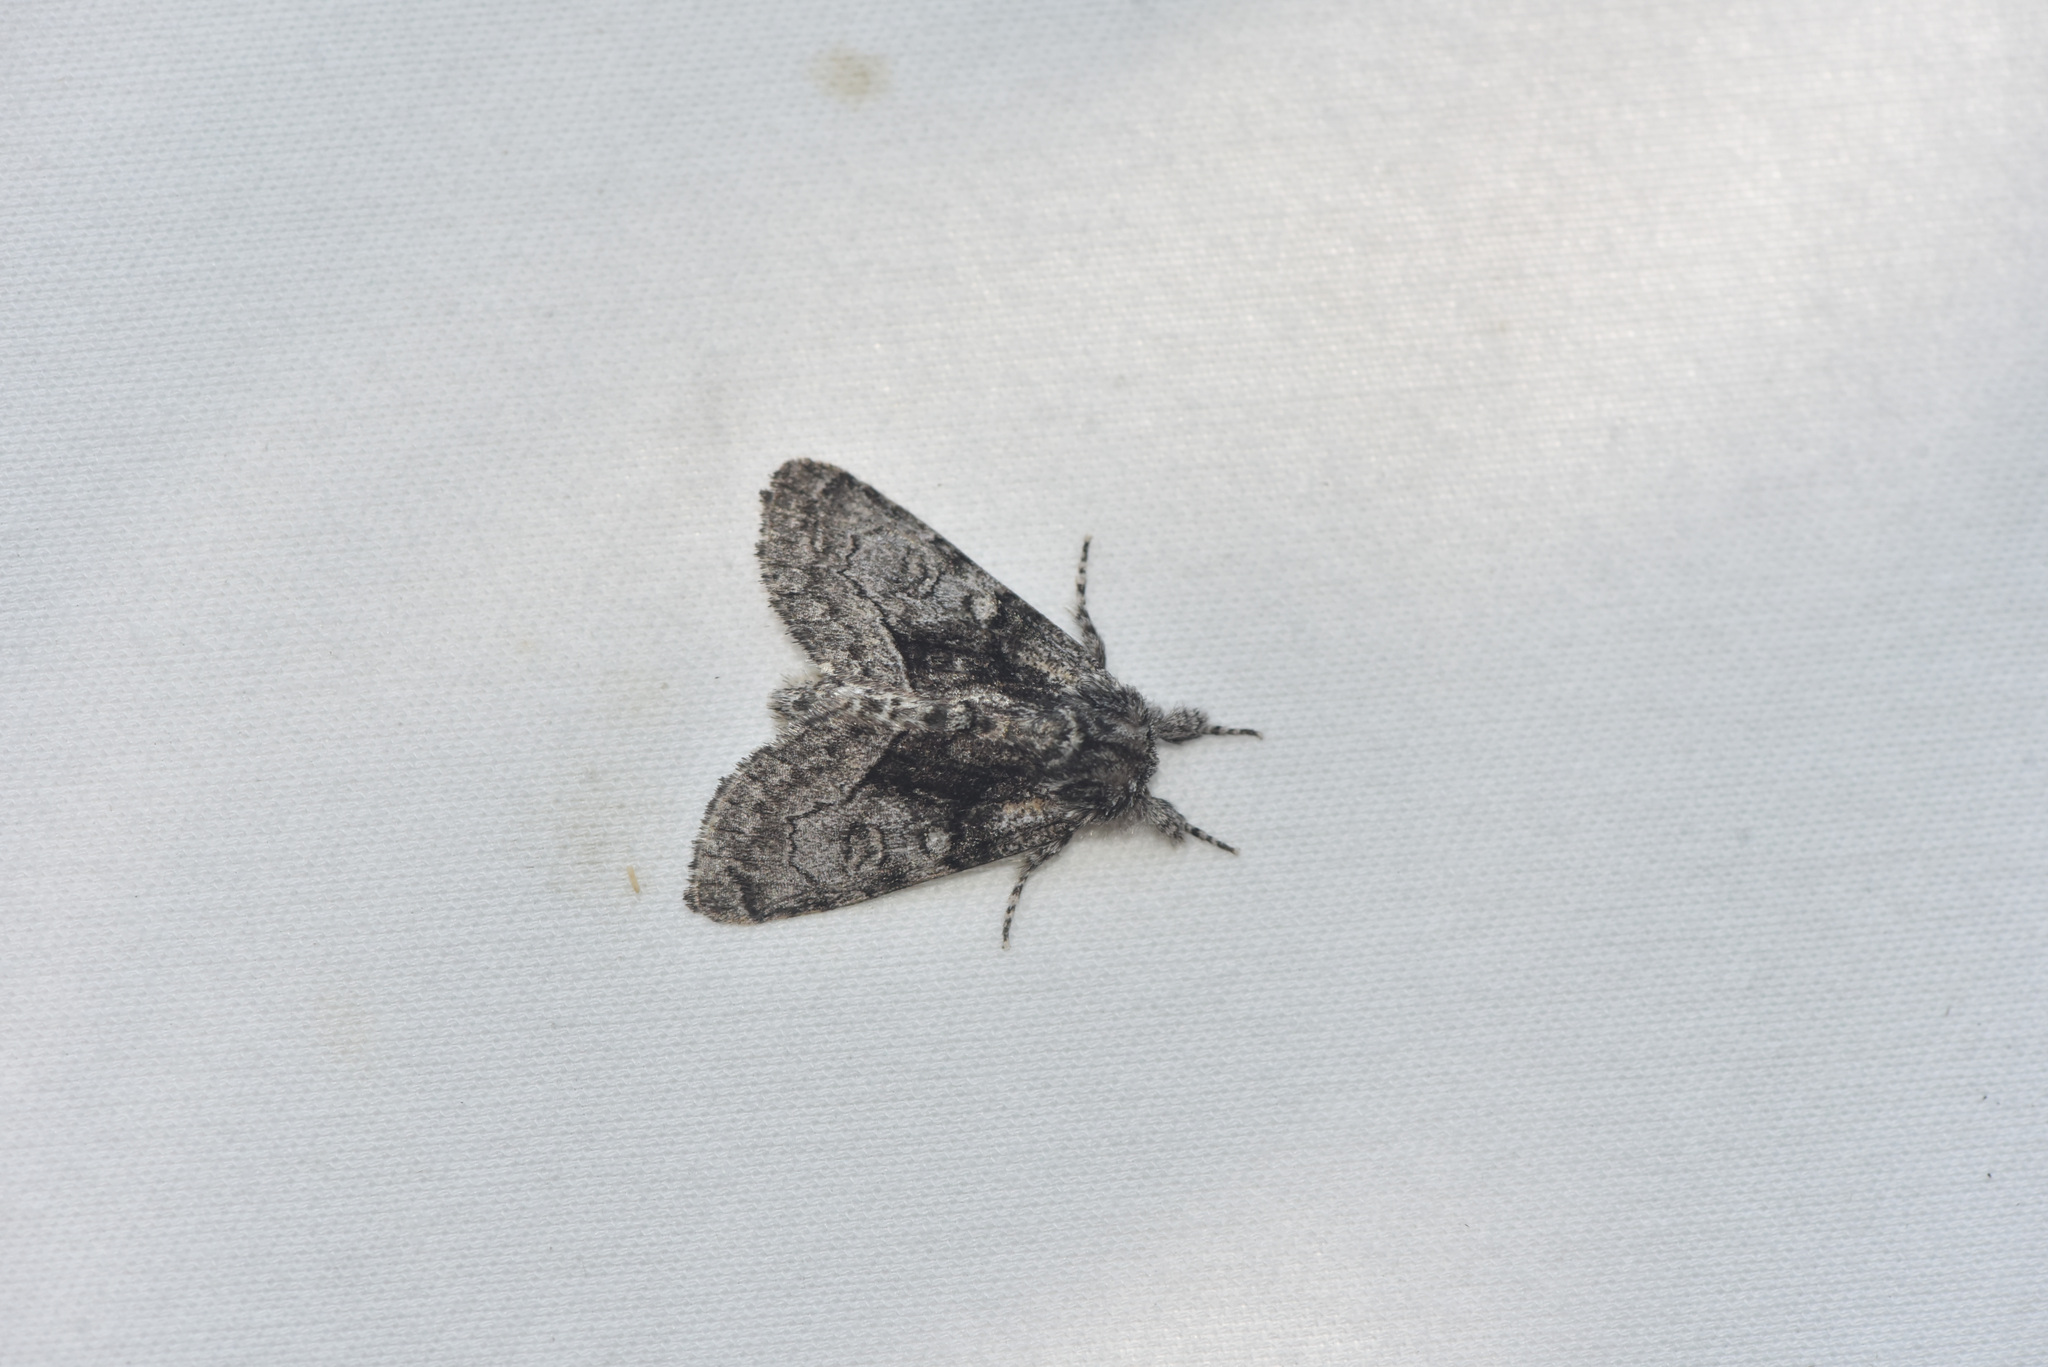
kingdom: Animalia
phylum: Arthropoda
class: Insecta
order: Lepidoptera
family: Noctuidae
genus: Raphia
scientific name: Raphia frater
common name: Brother
